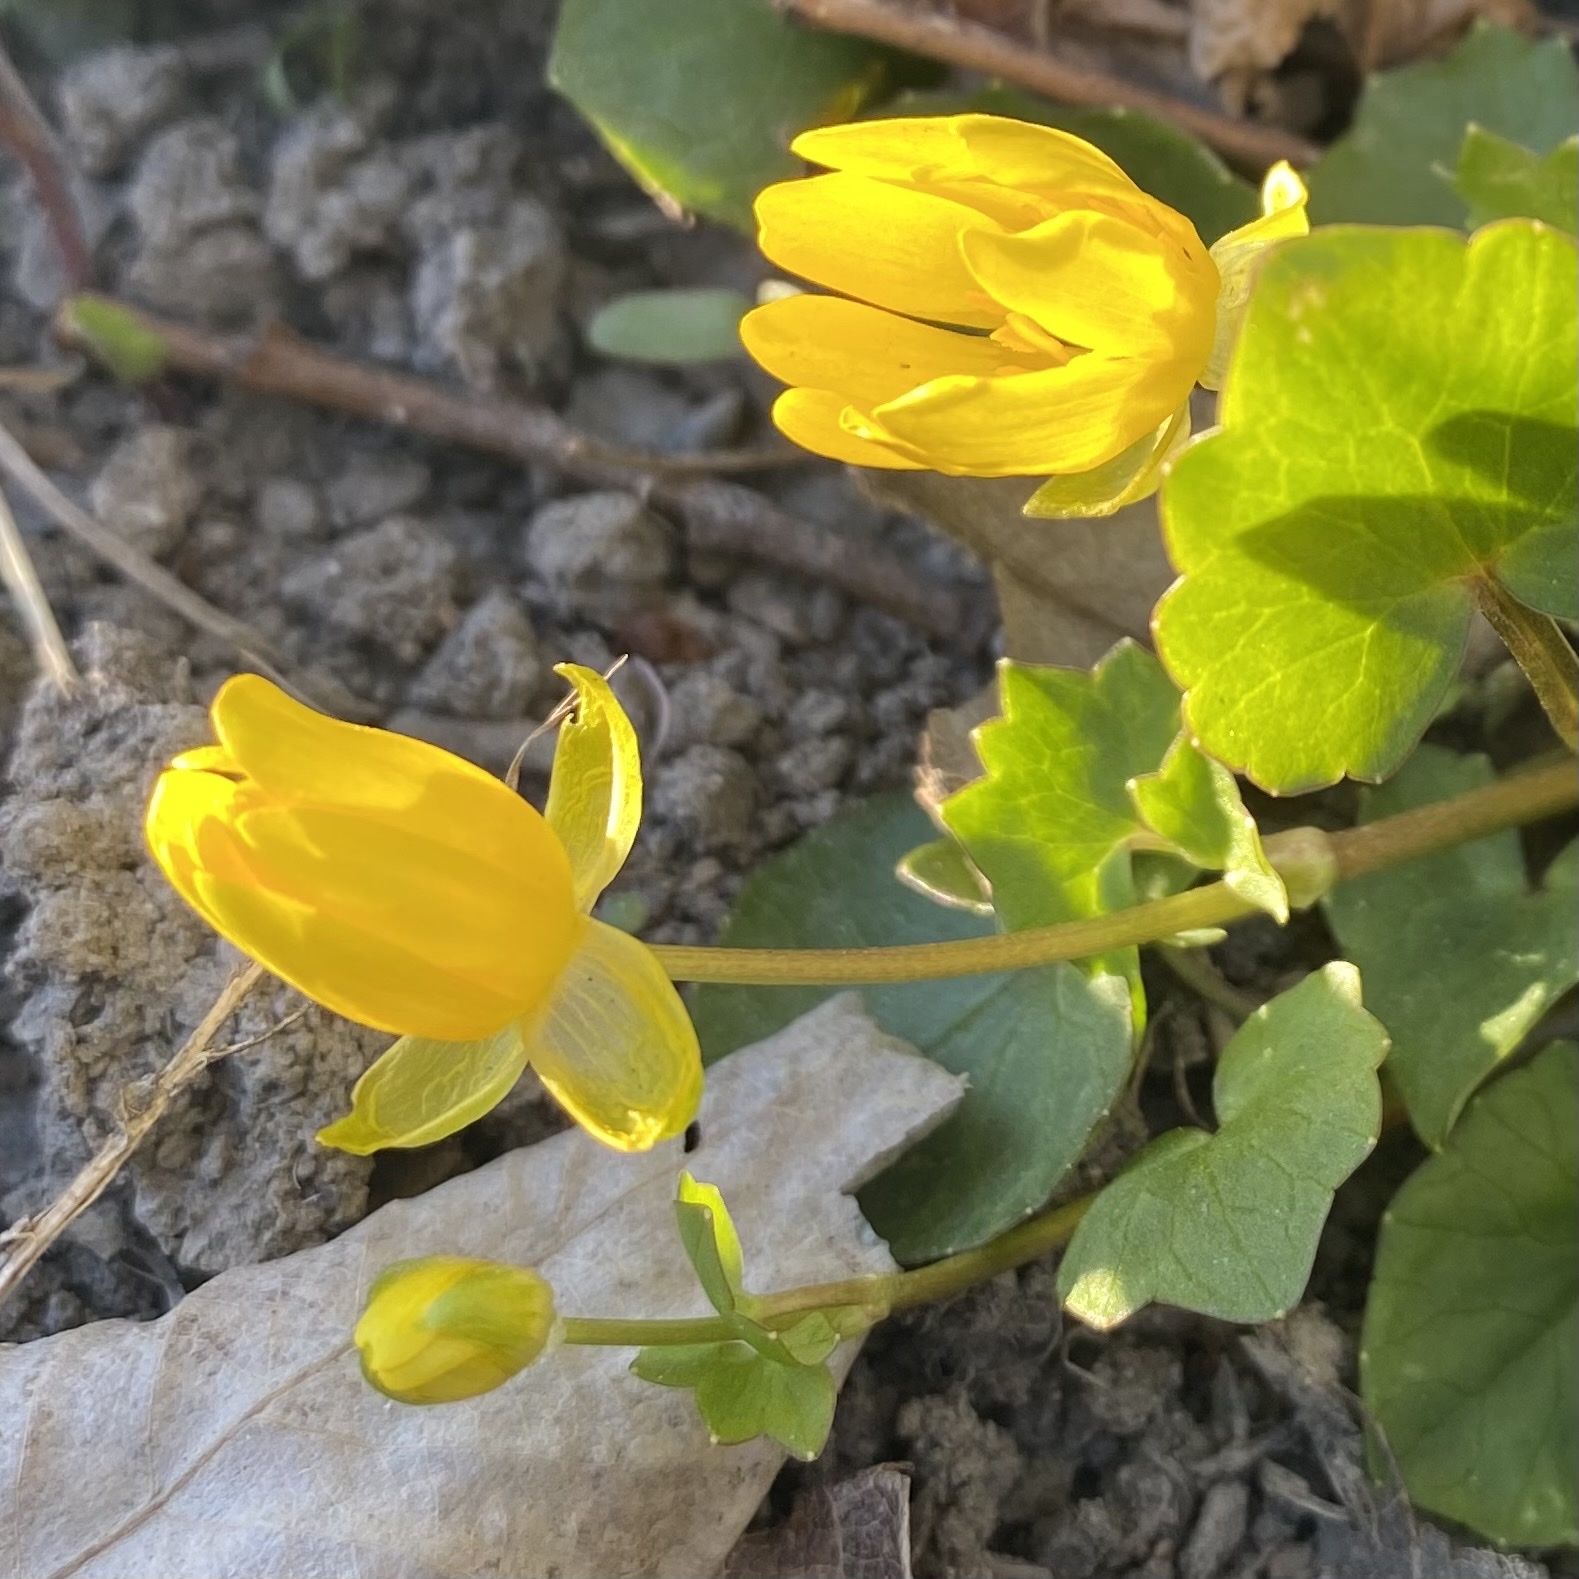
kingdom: Plantae
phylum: Tracheophyta
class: Magnoliopsida
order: Ranunculales
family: Ranunculaceae
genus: Ficaria
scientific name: Ficaria verna
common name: Lesser celandine
